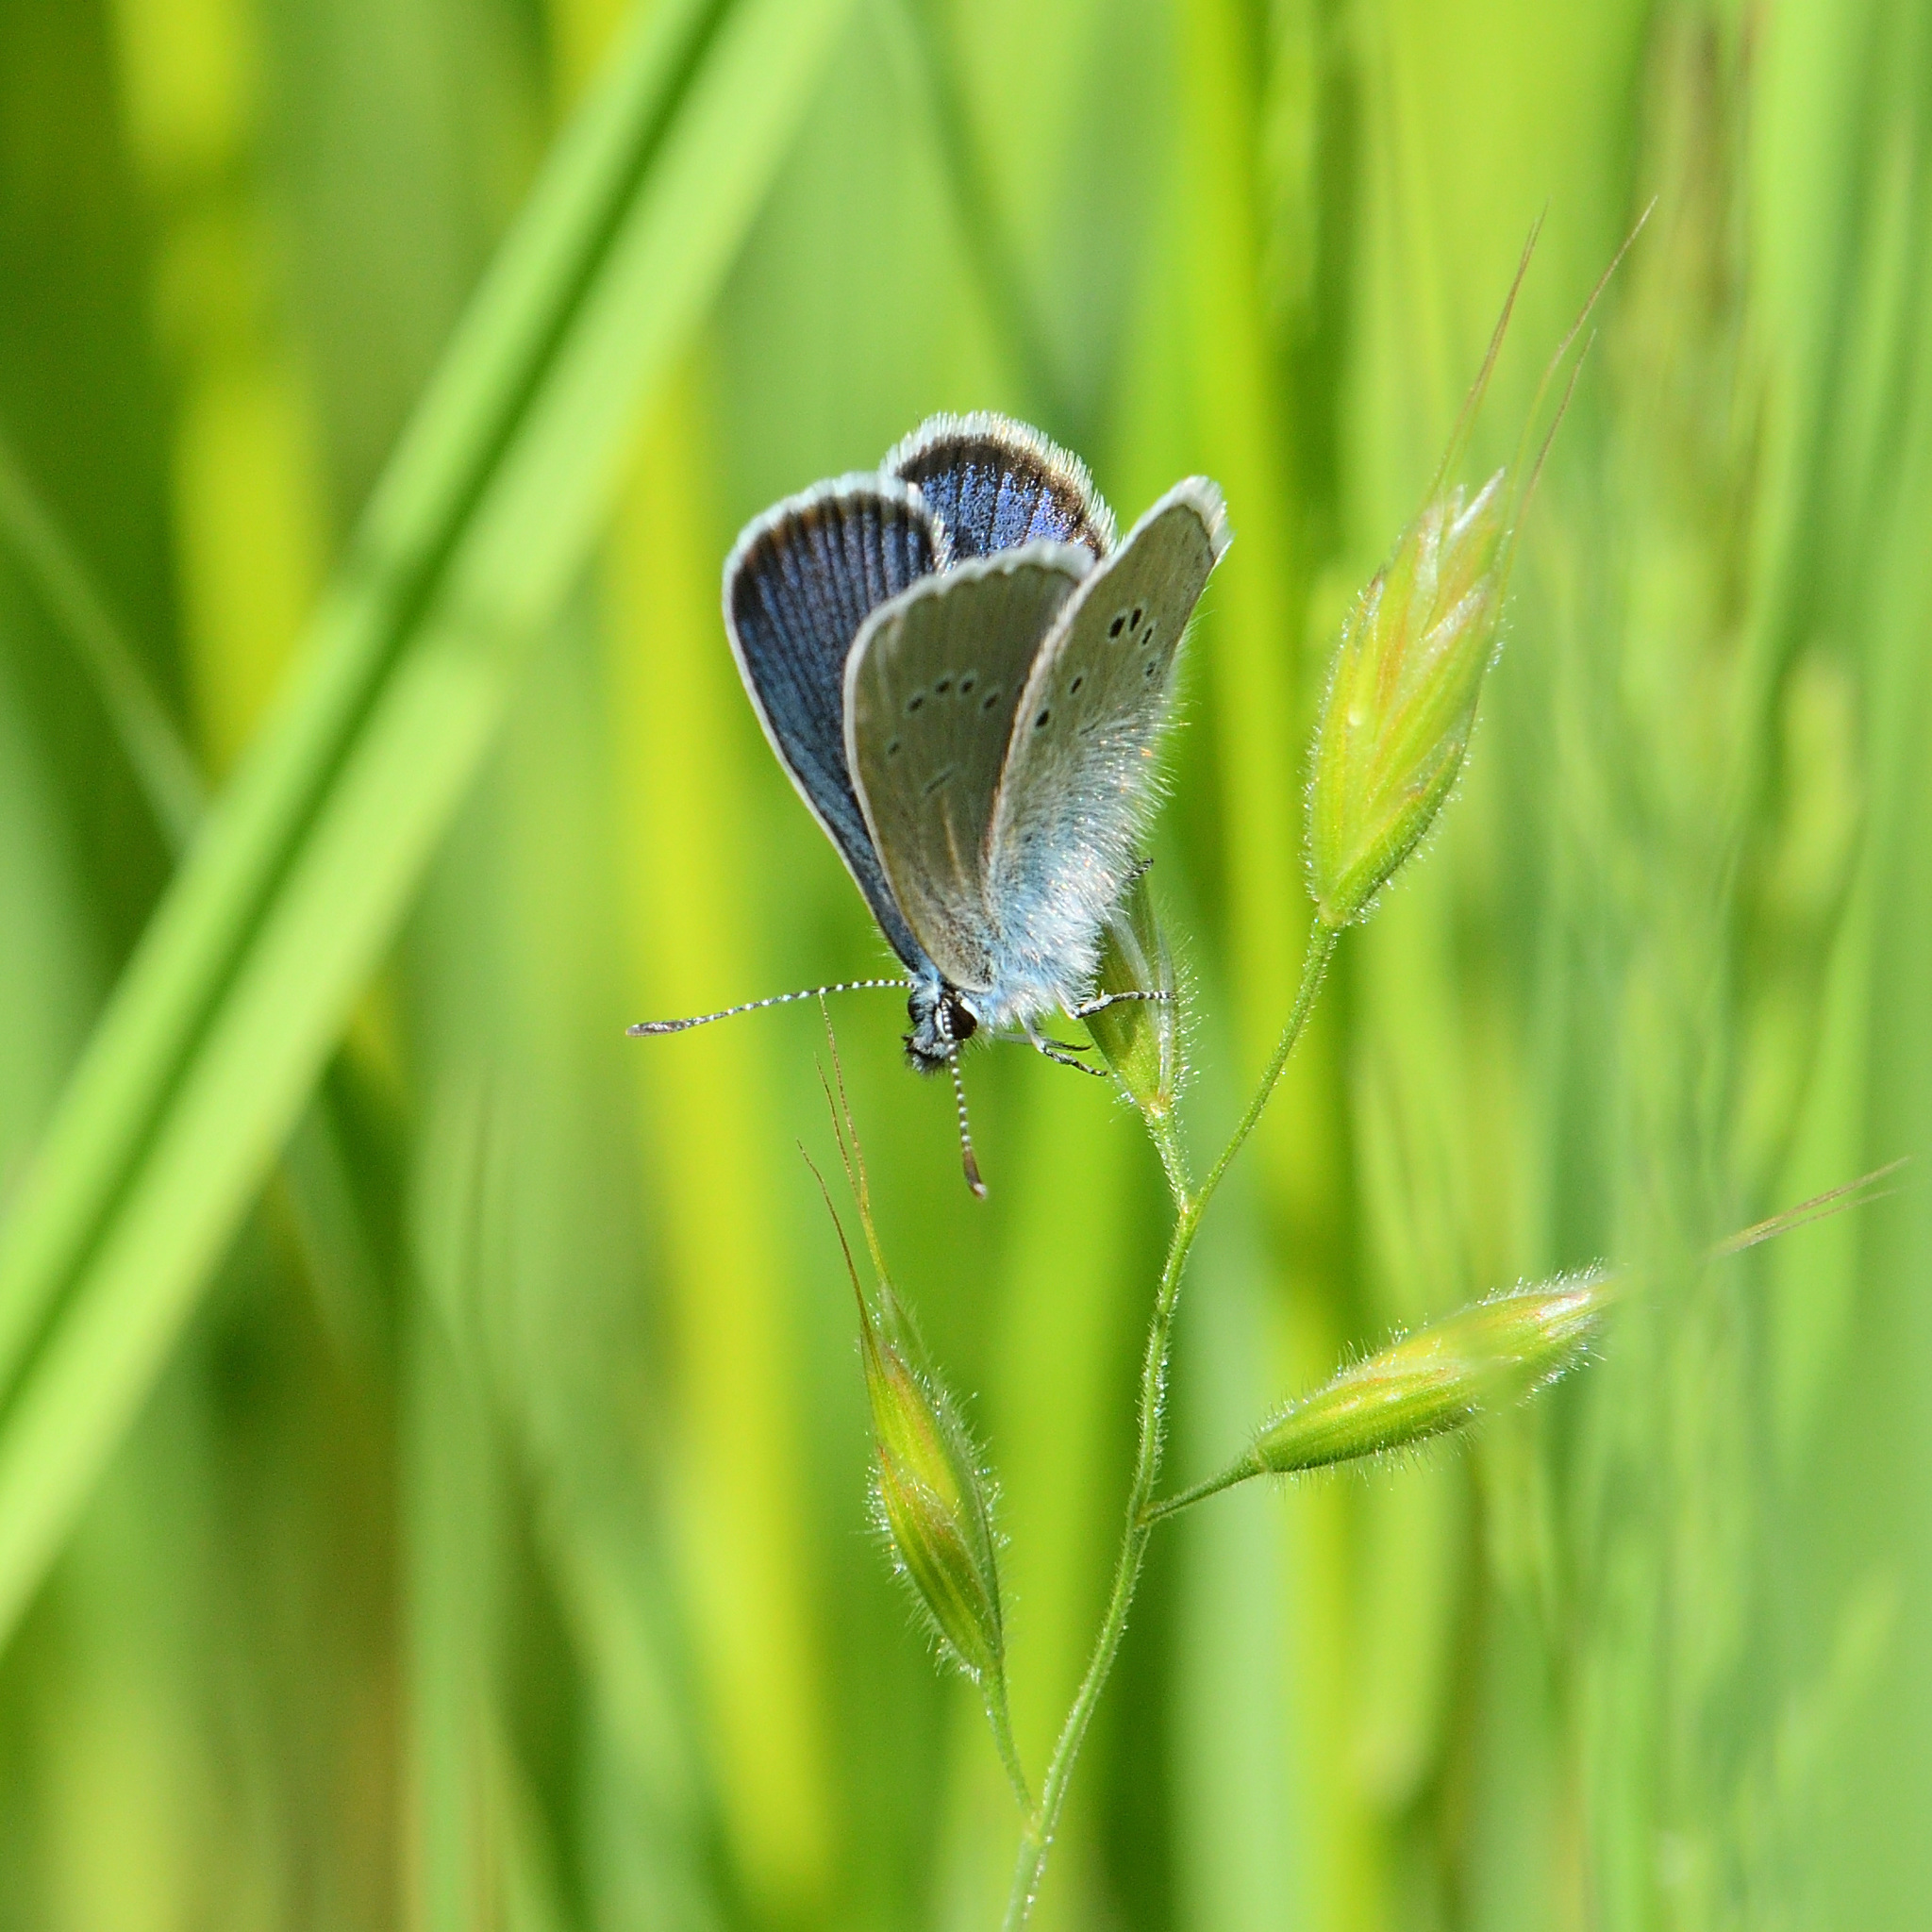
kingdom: Animalia
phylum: Arthropoda
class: Insecta
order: Lepidoptera
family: Lycaenidae
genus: Cyaniris
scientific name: Cyaniris semiargus
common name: Mazarine blue
